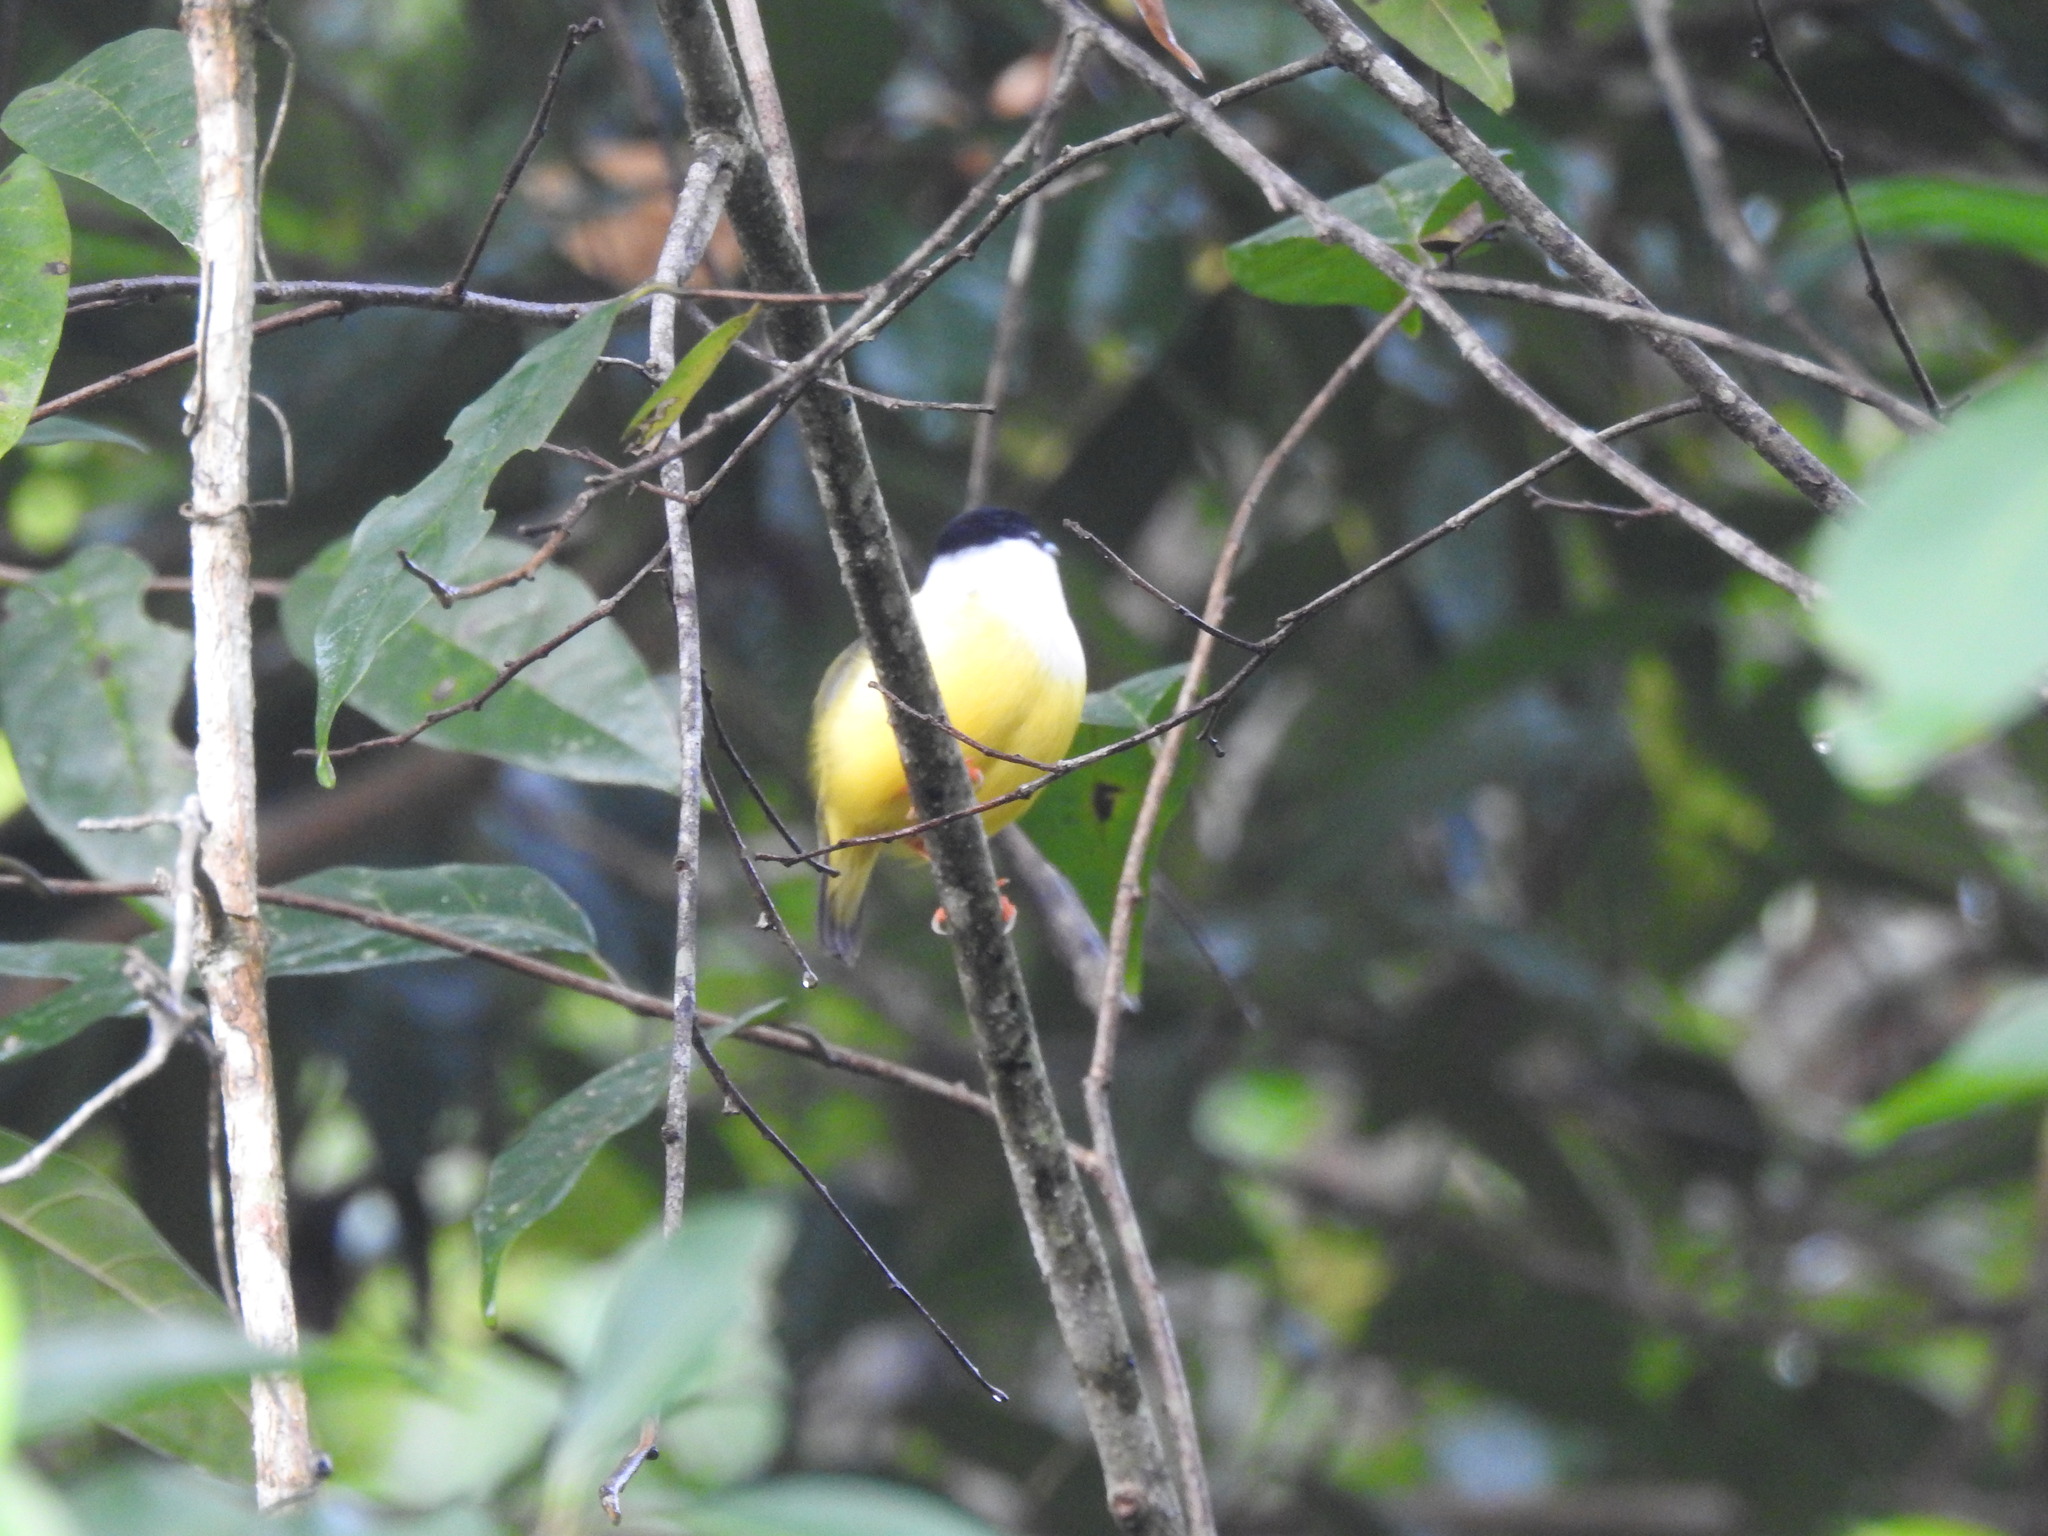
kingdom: Animalia
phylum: Chordata
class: Aves
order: Passeriformes
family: Pipridae
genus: Manacus
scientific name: Manacus candei
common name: White-collared manakin
